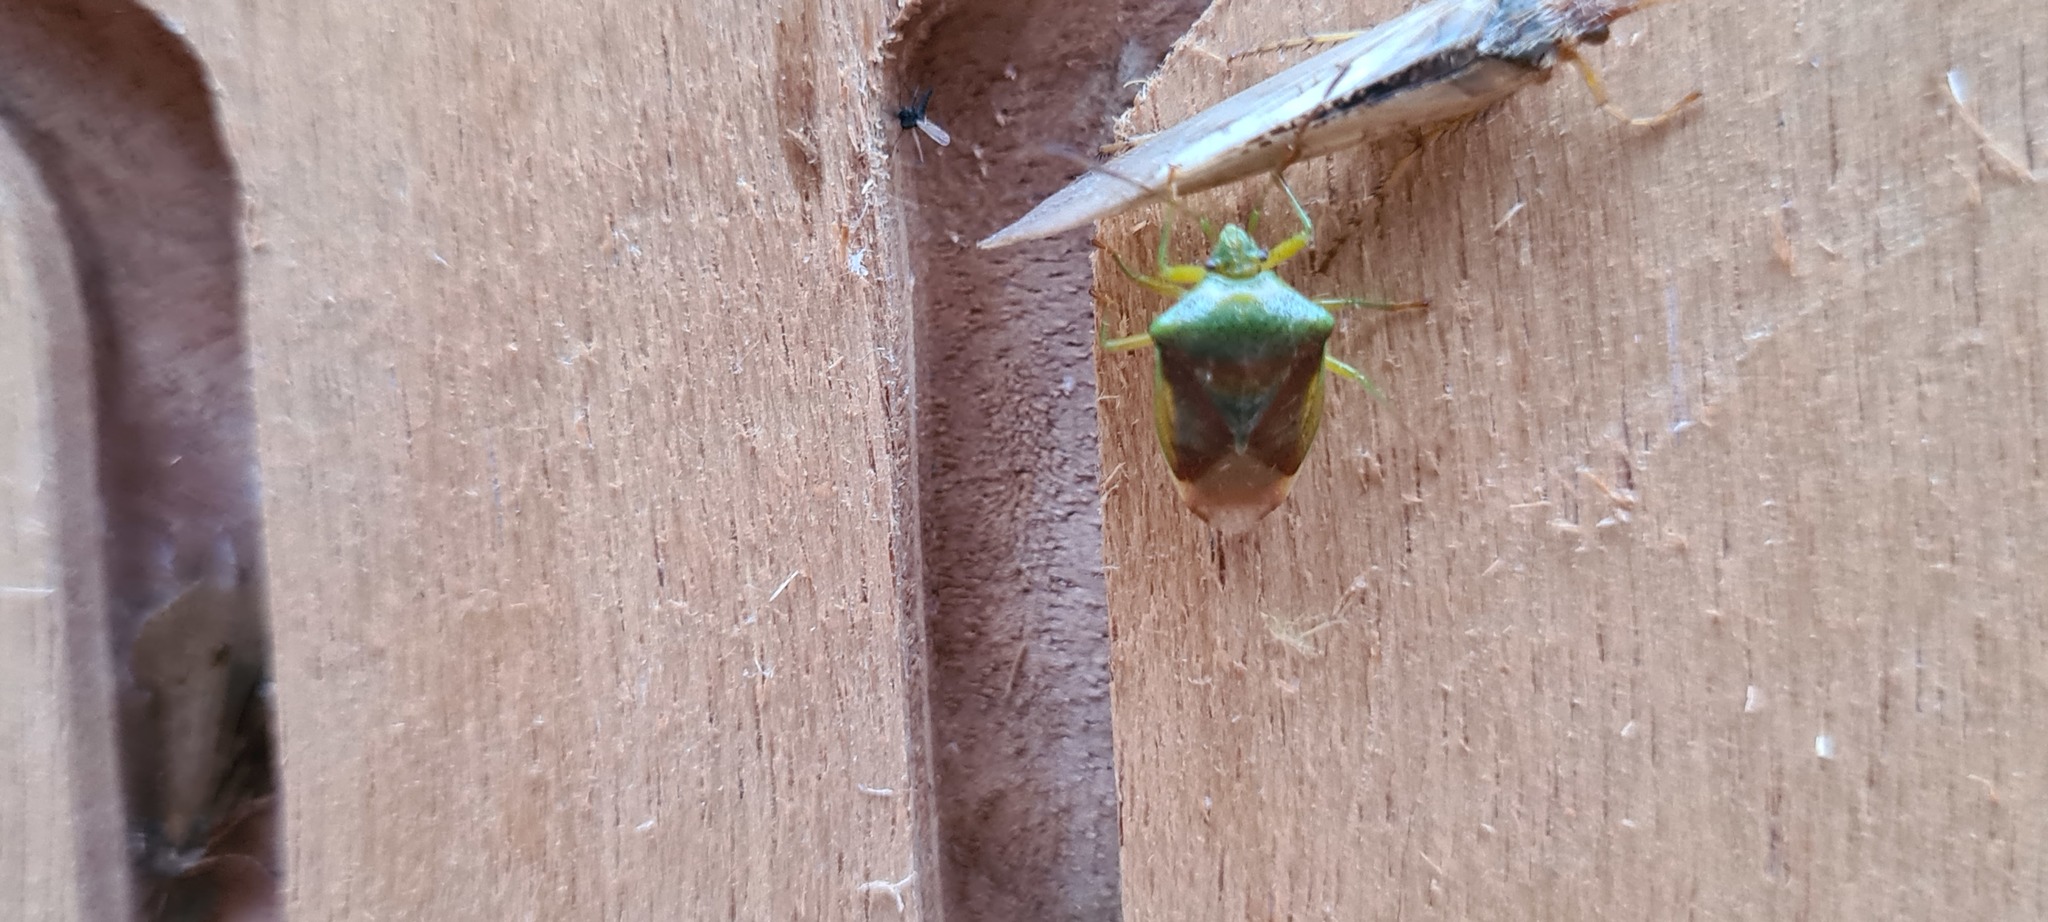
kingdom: Animalia
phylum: Arthropoda
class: Insecta
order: Hemiptera
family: Acanthosomatidae
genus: Elasmostethus
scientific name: Elasmostethus
